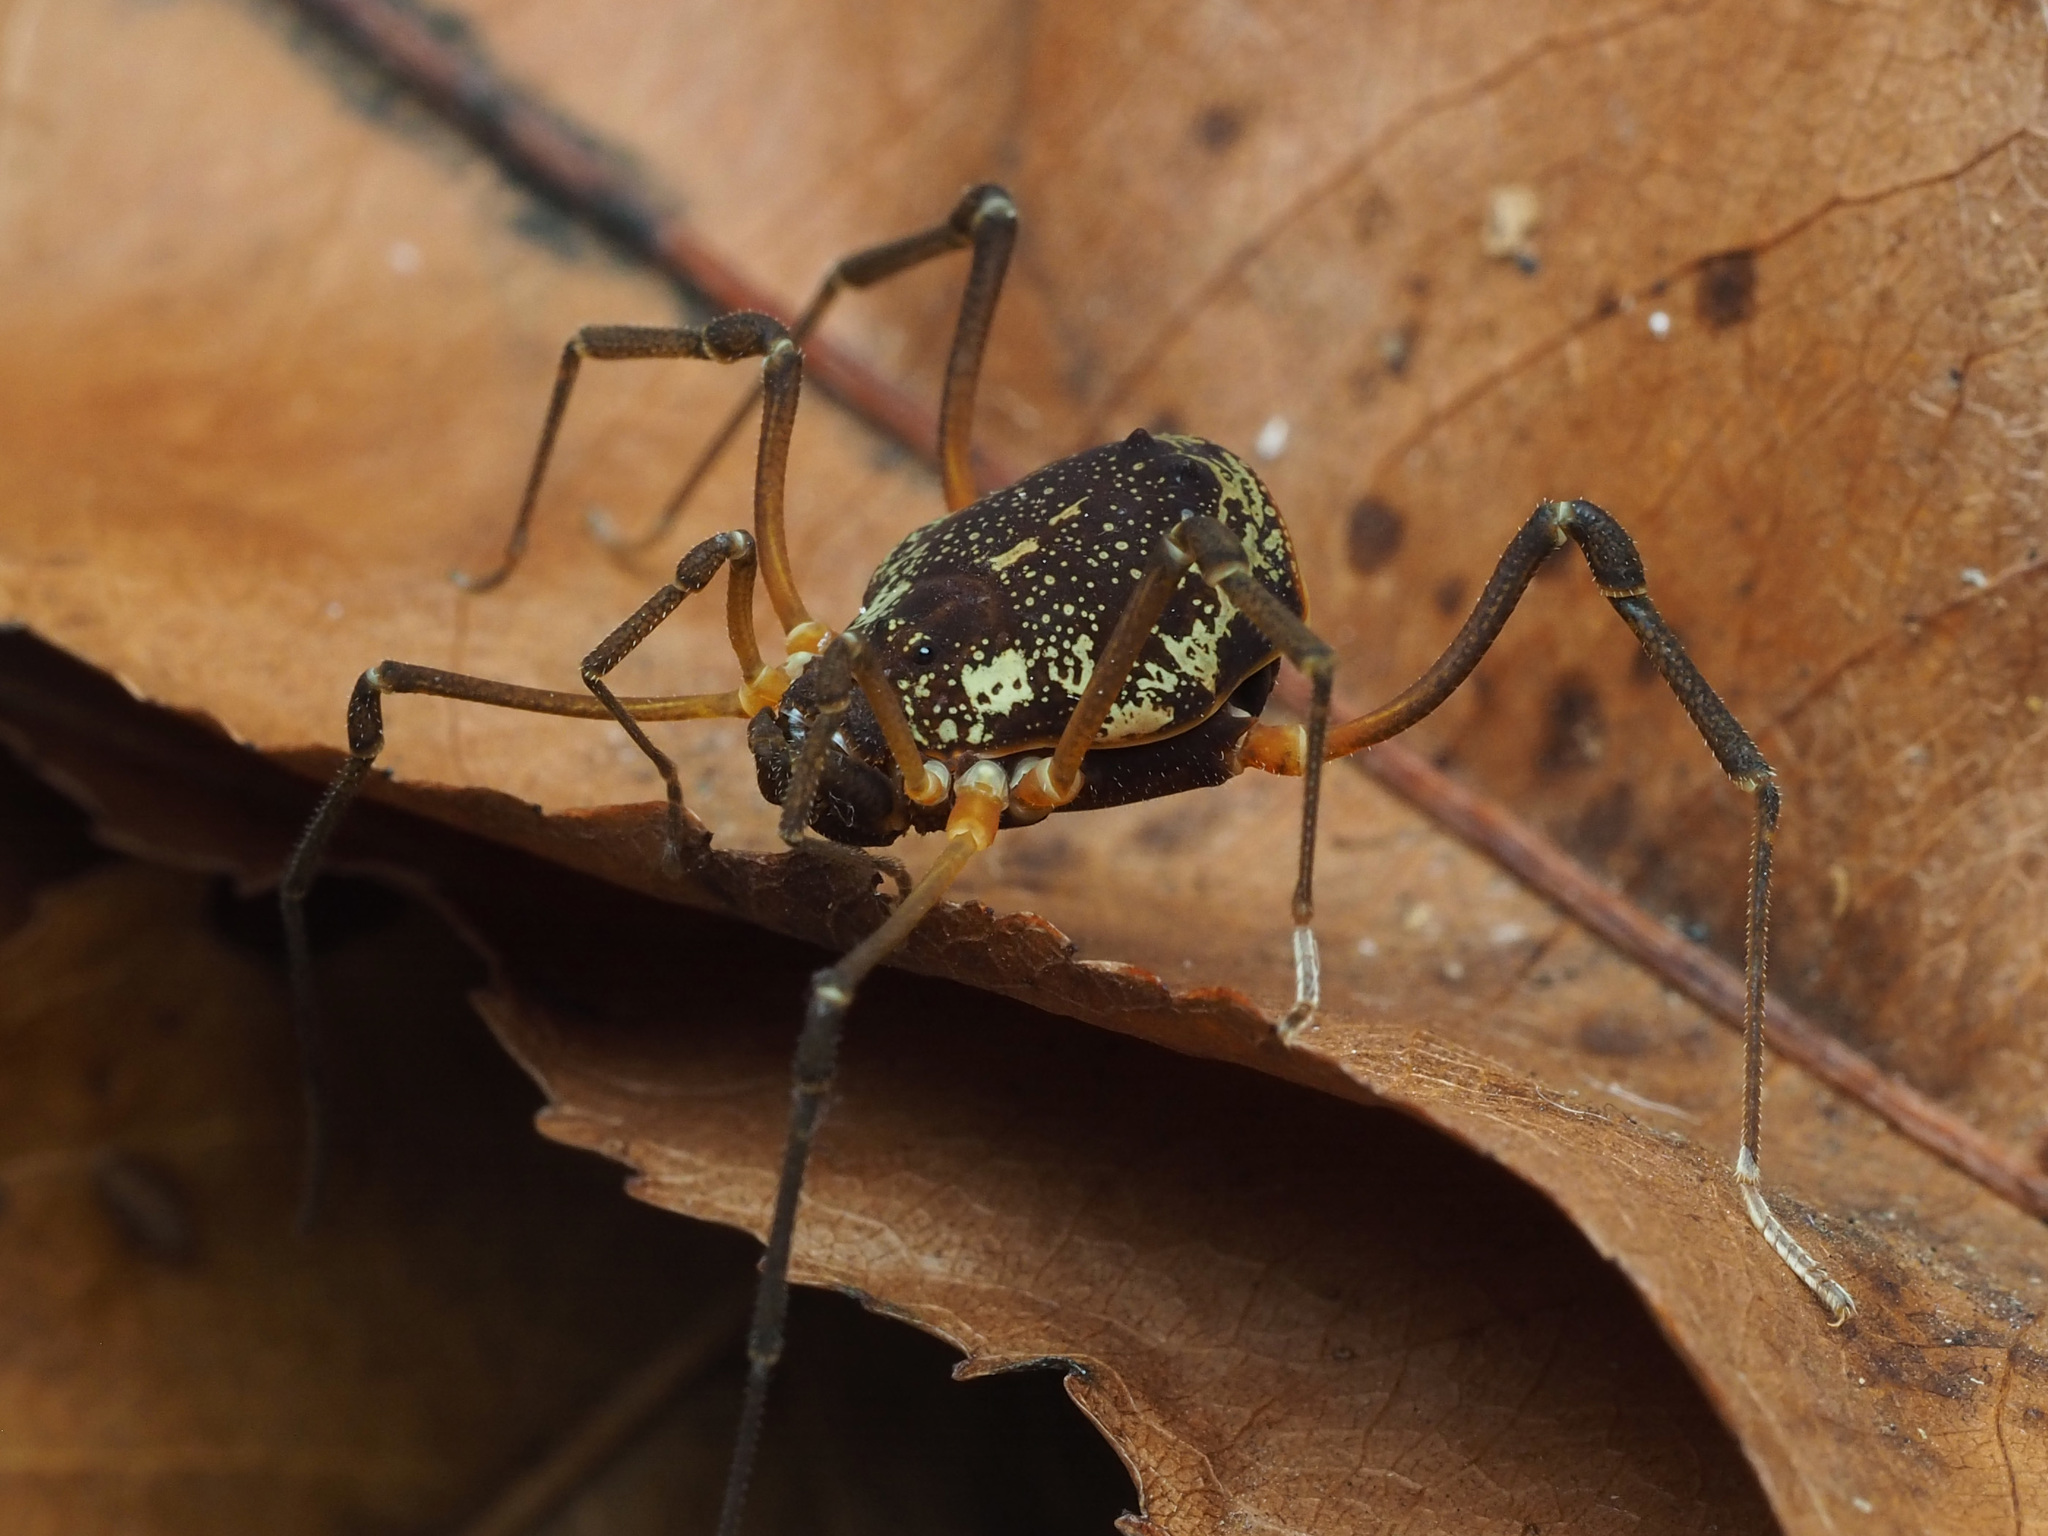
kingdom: Animalia
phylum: Arthropoda
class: Arachnida
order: Opiliones
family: Cosmetidae
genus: Erginulus
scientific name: Erginulus clavotibialis
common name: Harvestmen
